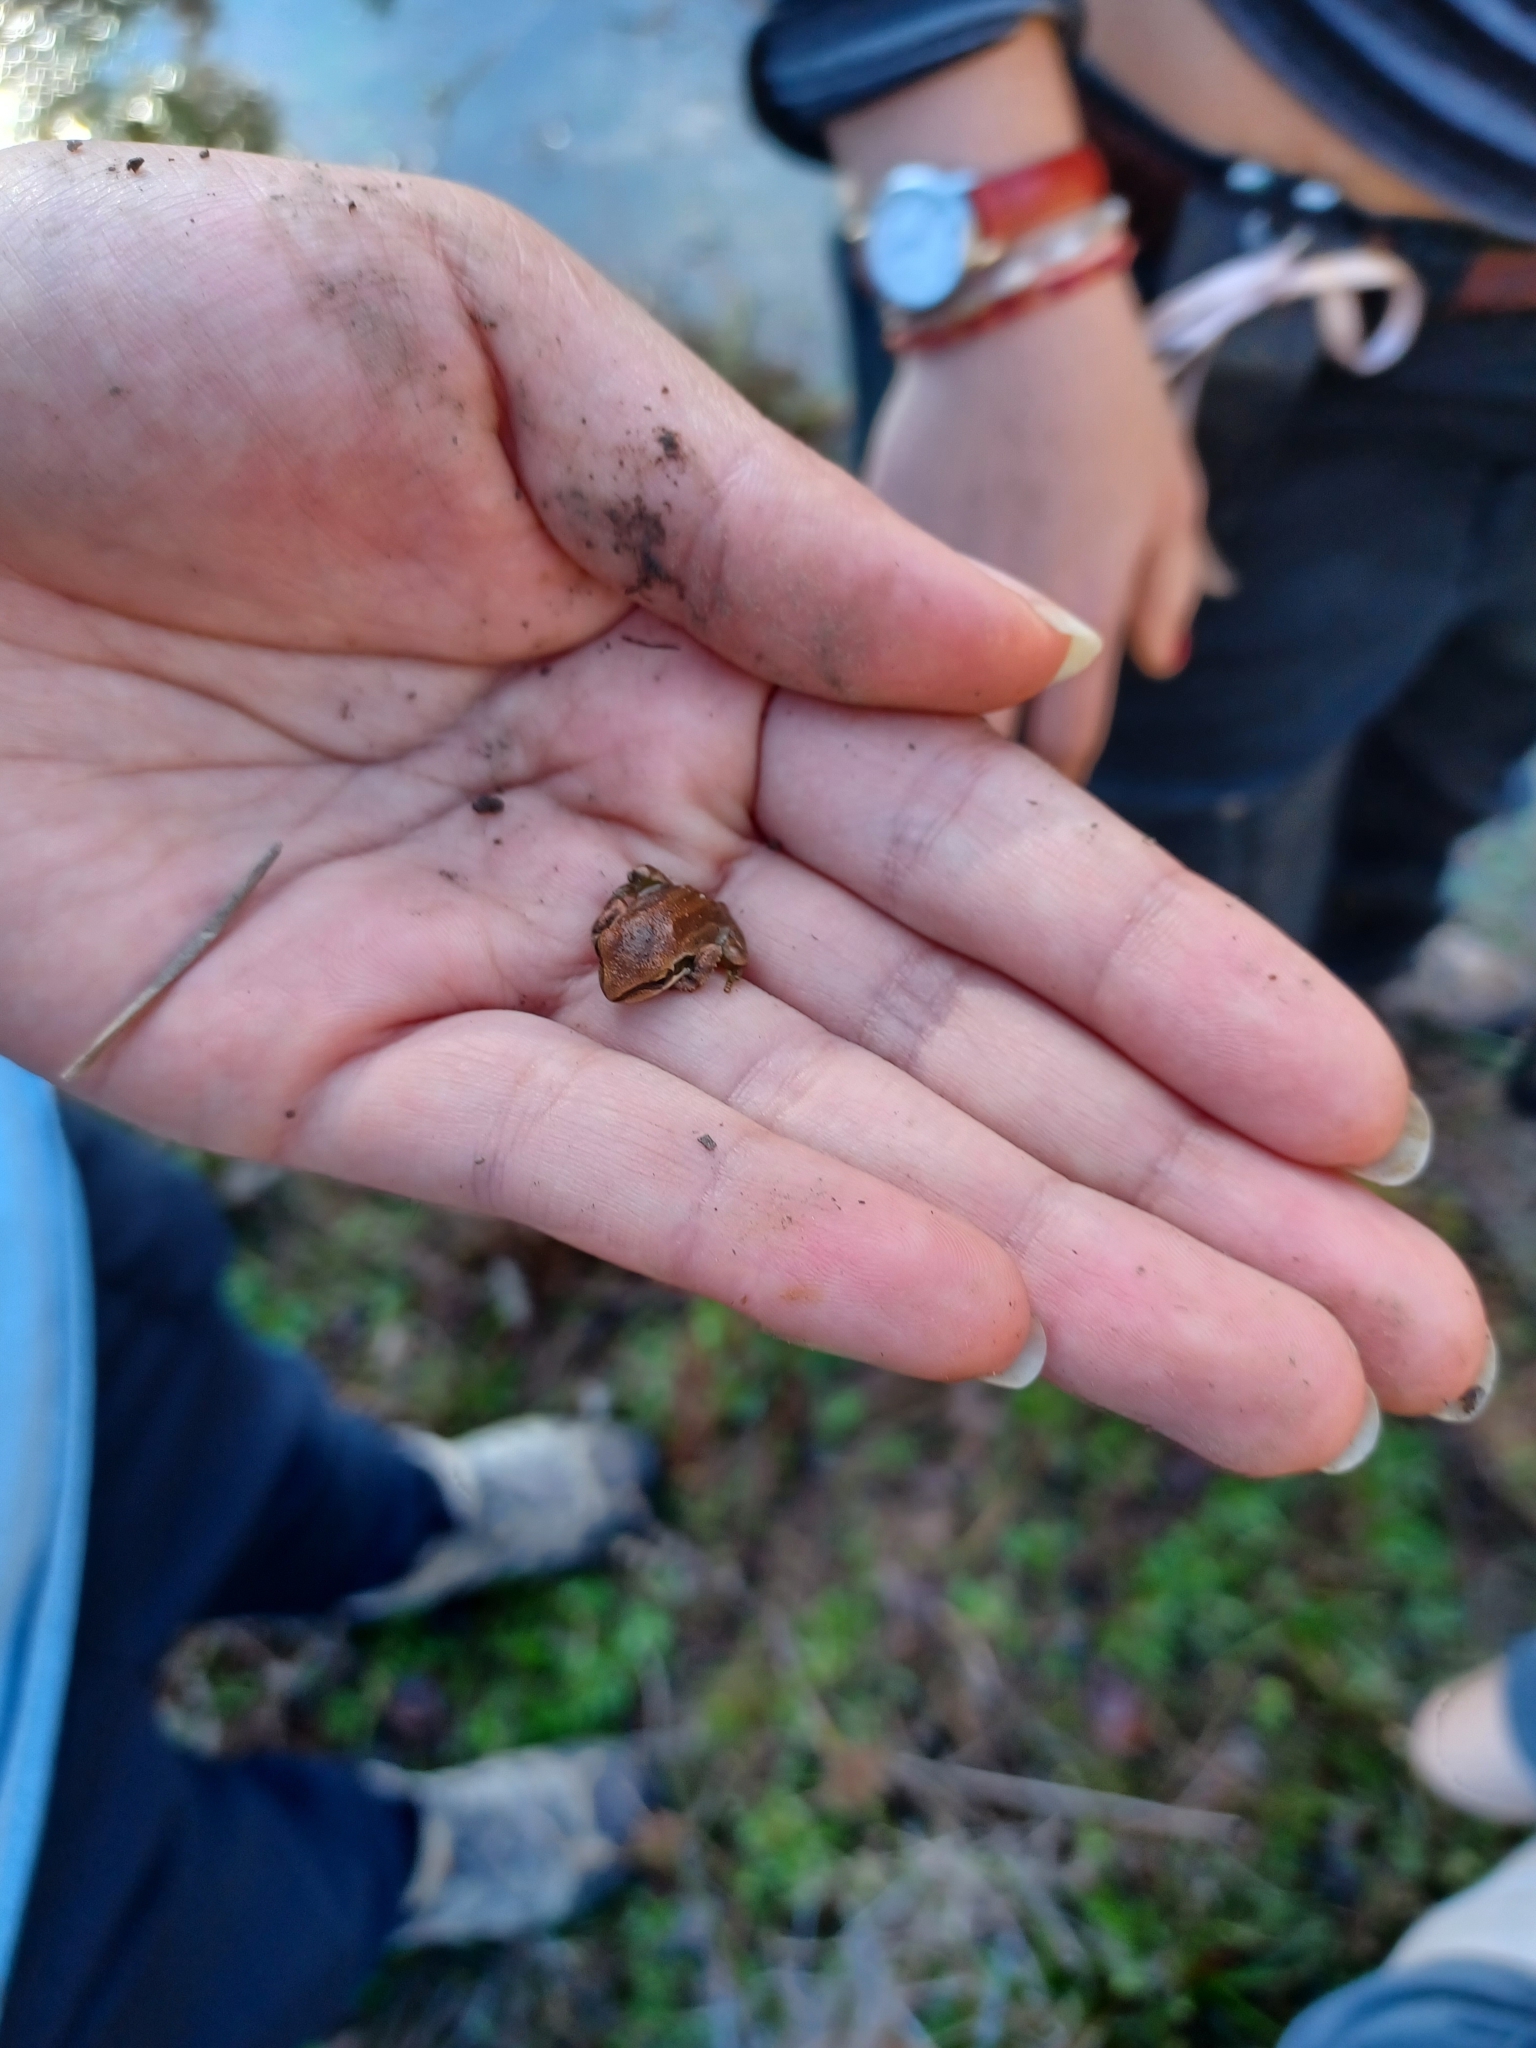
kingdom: Animalia
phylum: Chordata
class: Amphibia
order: Anura
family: Hylidae
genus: Pseudacris
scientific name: Pseudacris regilla
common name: Pacific chorus frog
